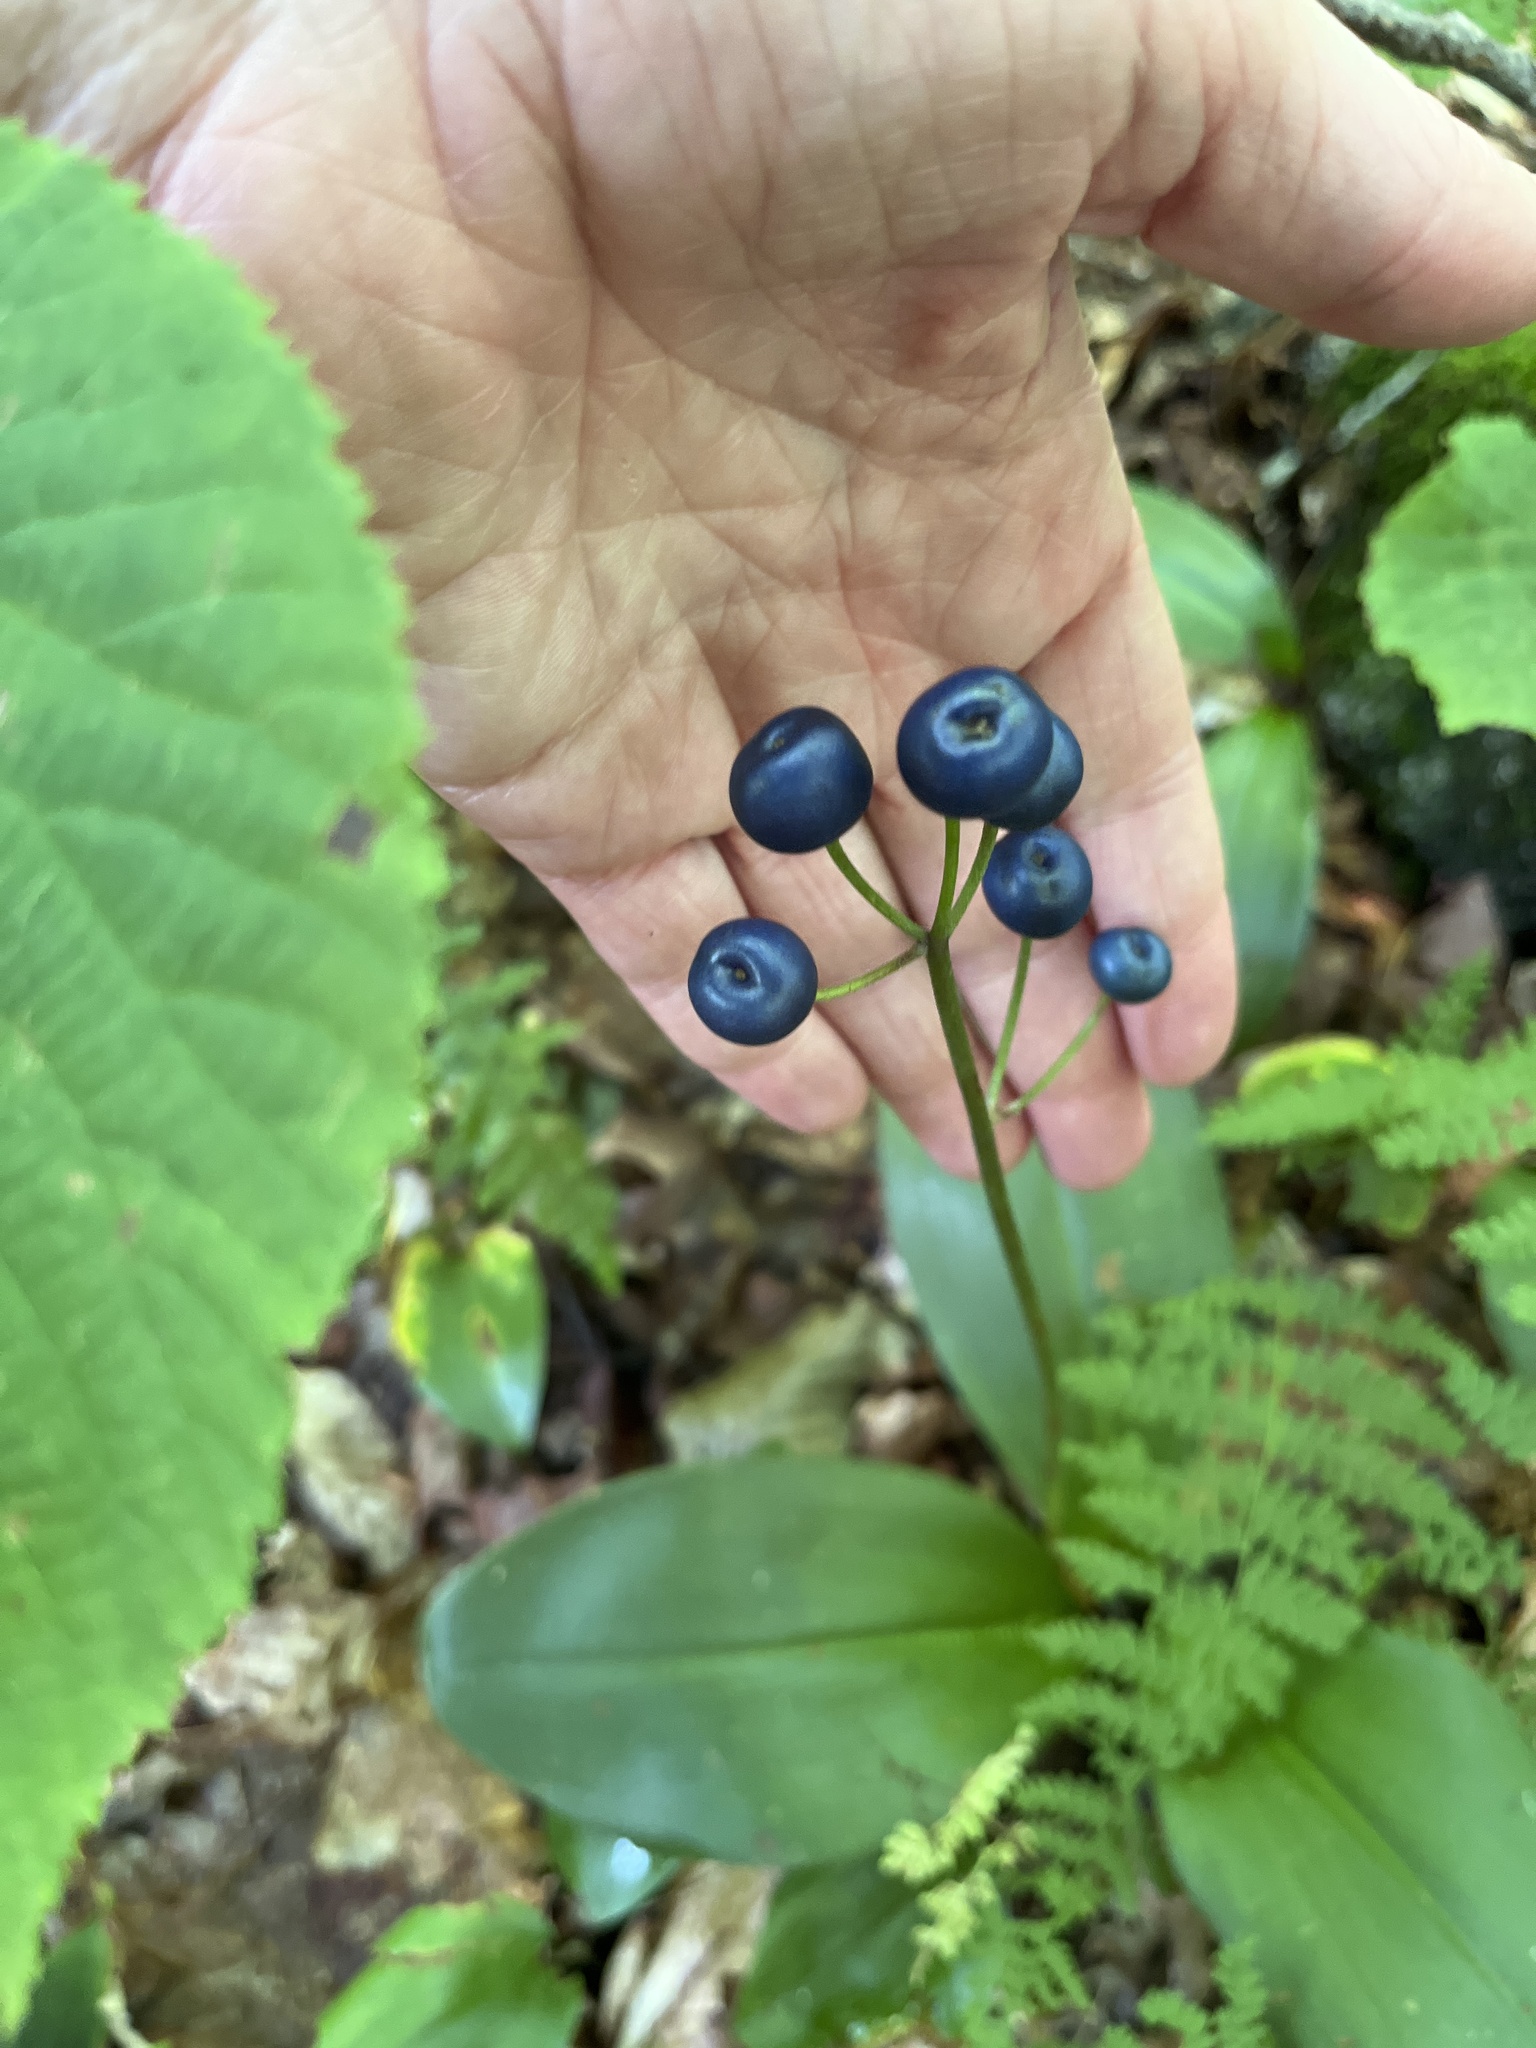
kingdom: Plantae
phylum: Tracheophyta
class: Liliopsida
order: Liliales
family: Liliaceae
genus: Clintonia
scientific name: Clintonia borealis
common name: Yellow clintonia
